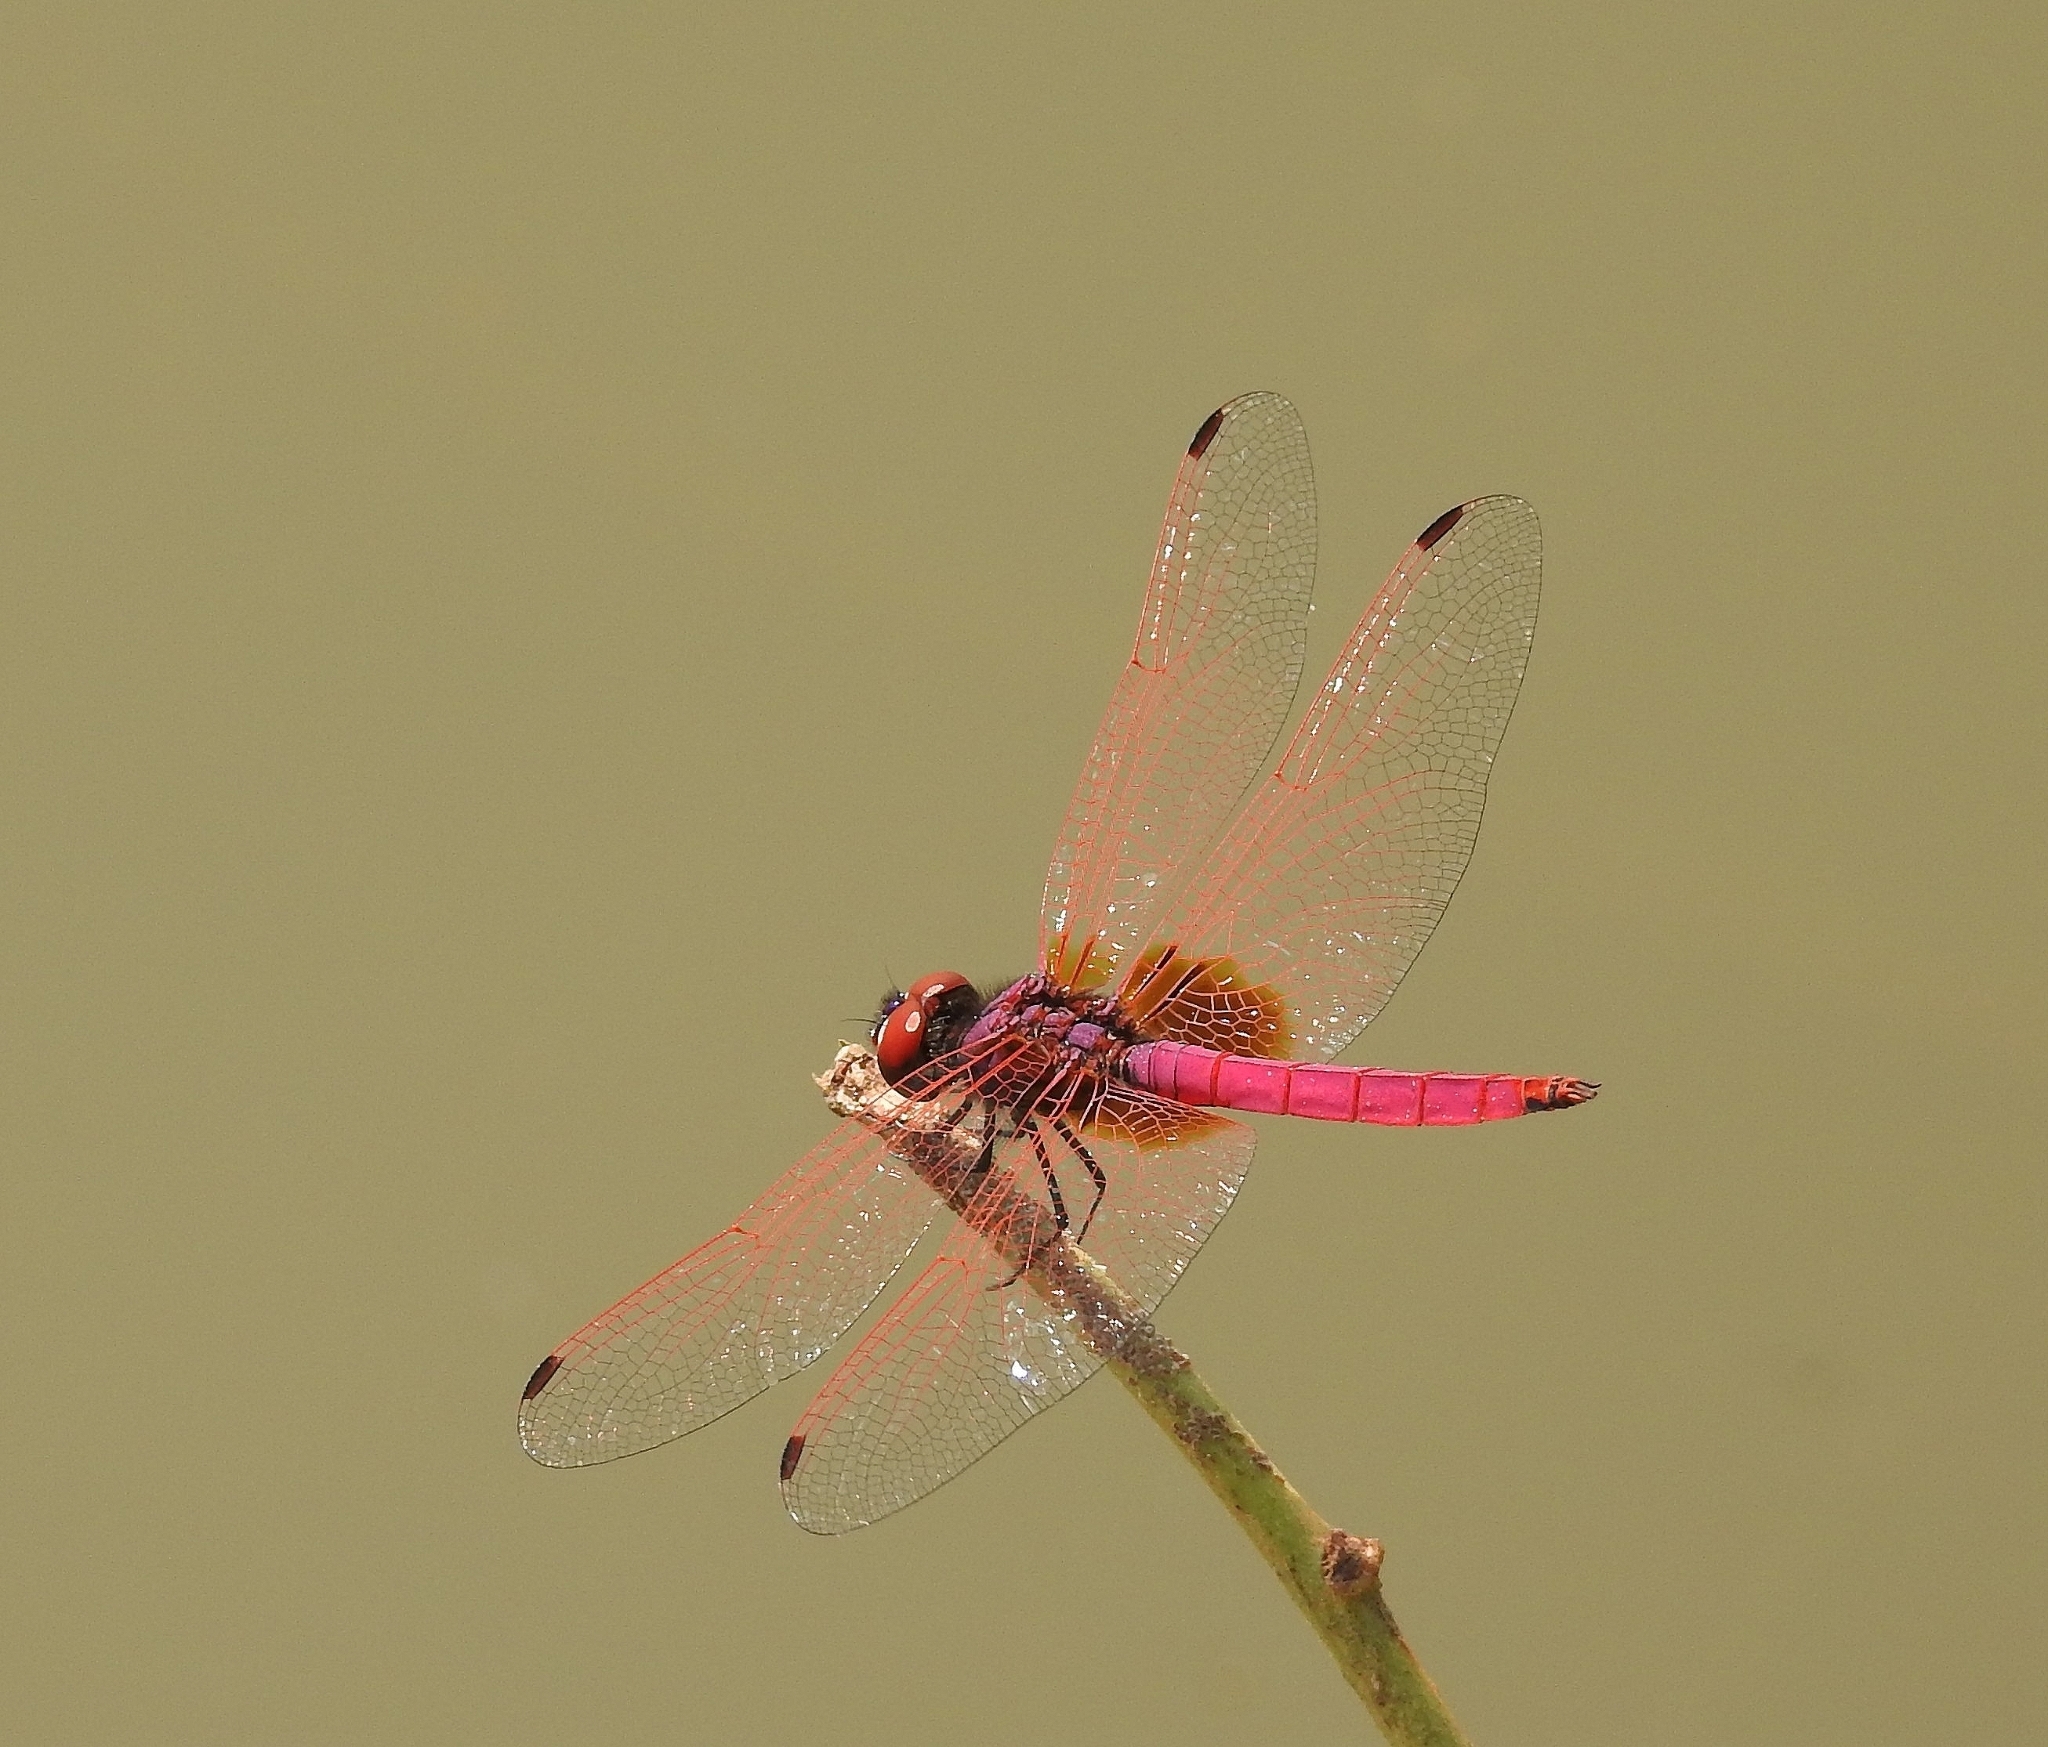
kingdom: Animalia
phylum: Arthropoda
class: Insecta
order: Odonata
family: Libellulidae
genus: Trithemis
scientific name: Trithemis aurora
